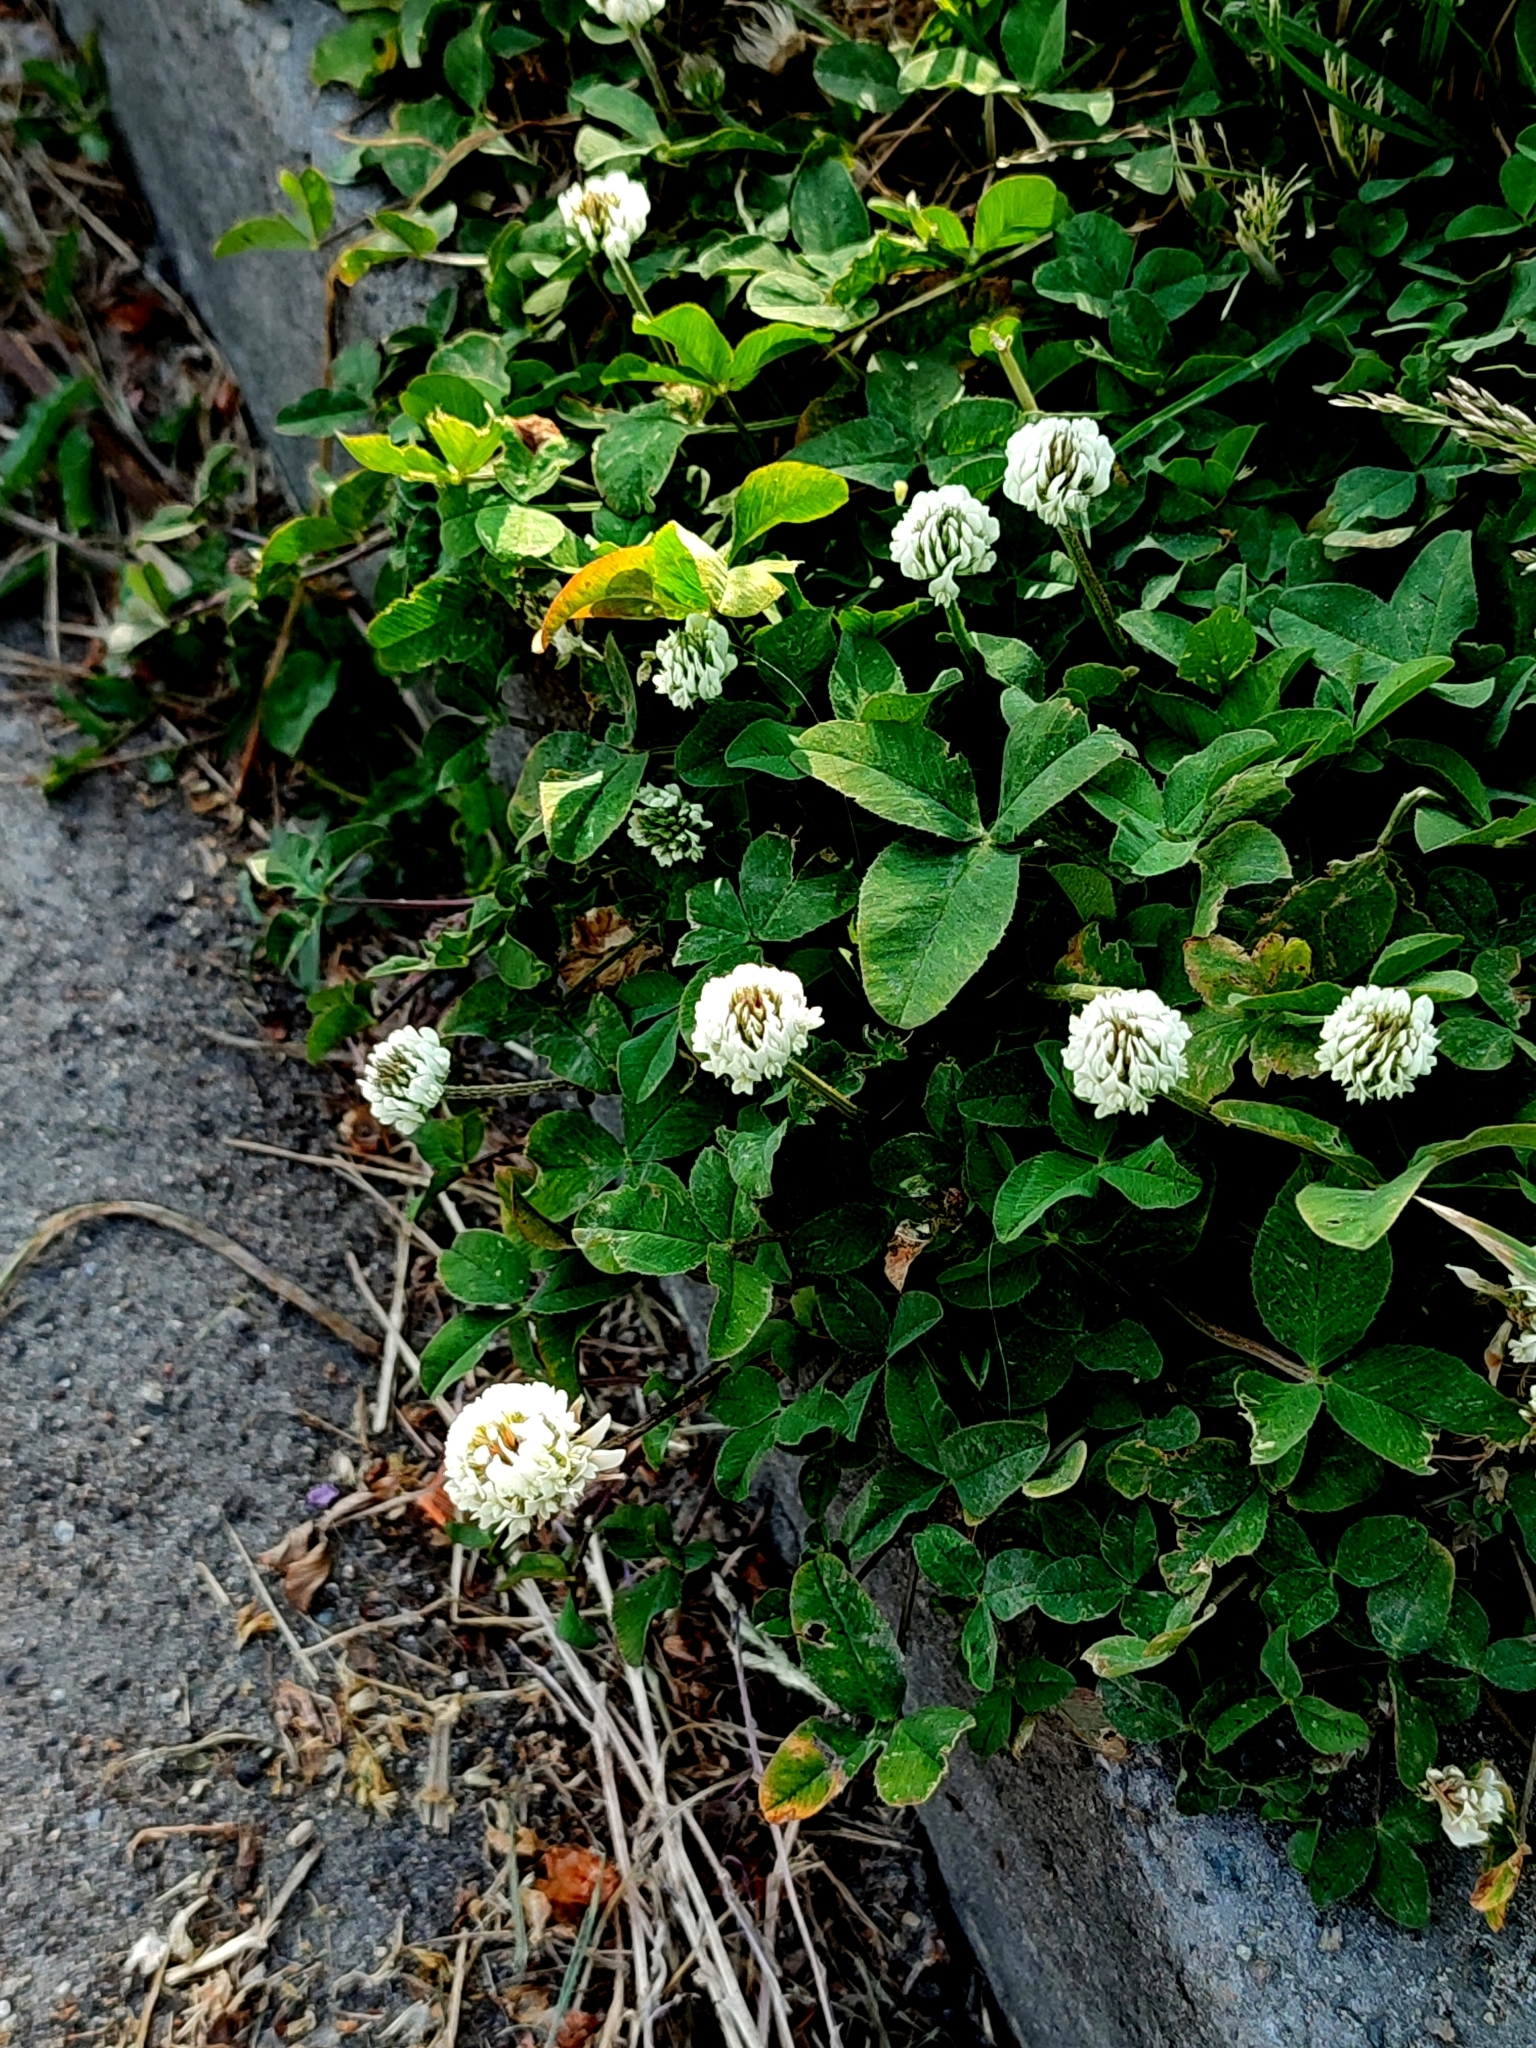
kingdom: Plantae
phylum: Tracheophyta
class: Magnoliopsida
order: Fabales
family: Fabaceae
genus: Trifolium
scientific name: Trifolium repens
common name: White clover
